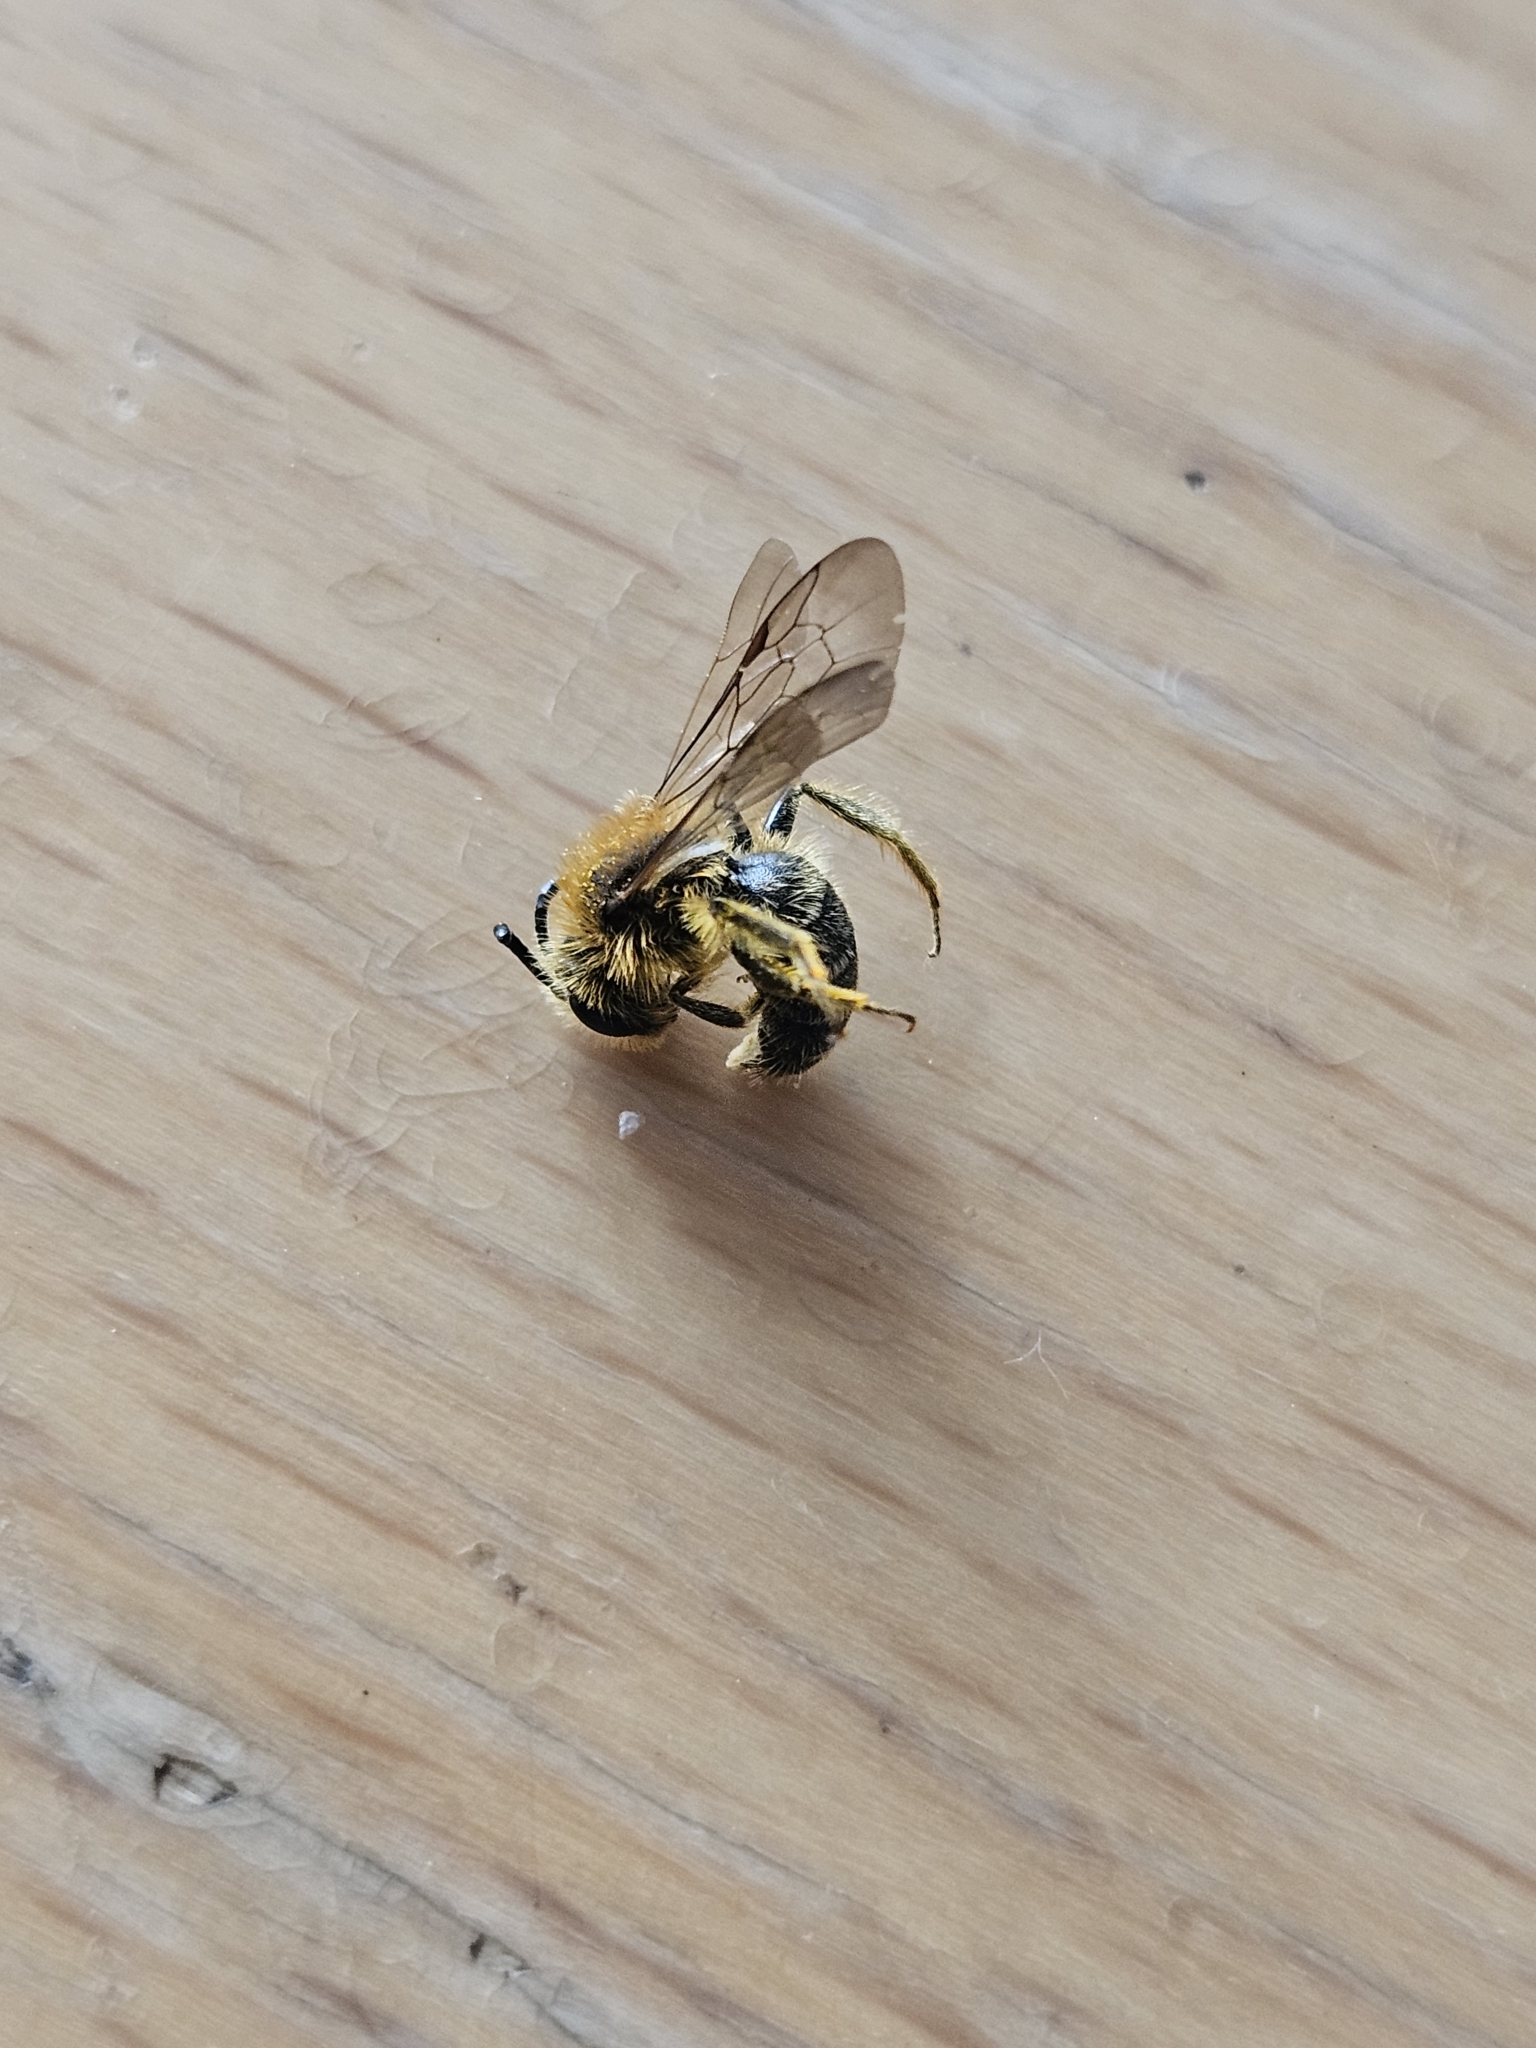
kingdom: Animalia
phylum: Arthropoda
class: Insecta
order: Hymenoptera
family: Andrenidae
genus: Andrena
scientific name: Andrena lagopus
